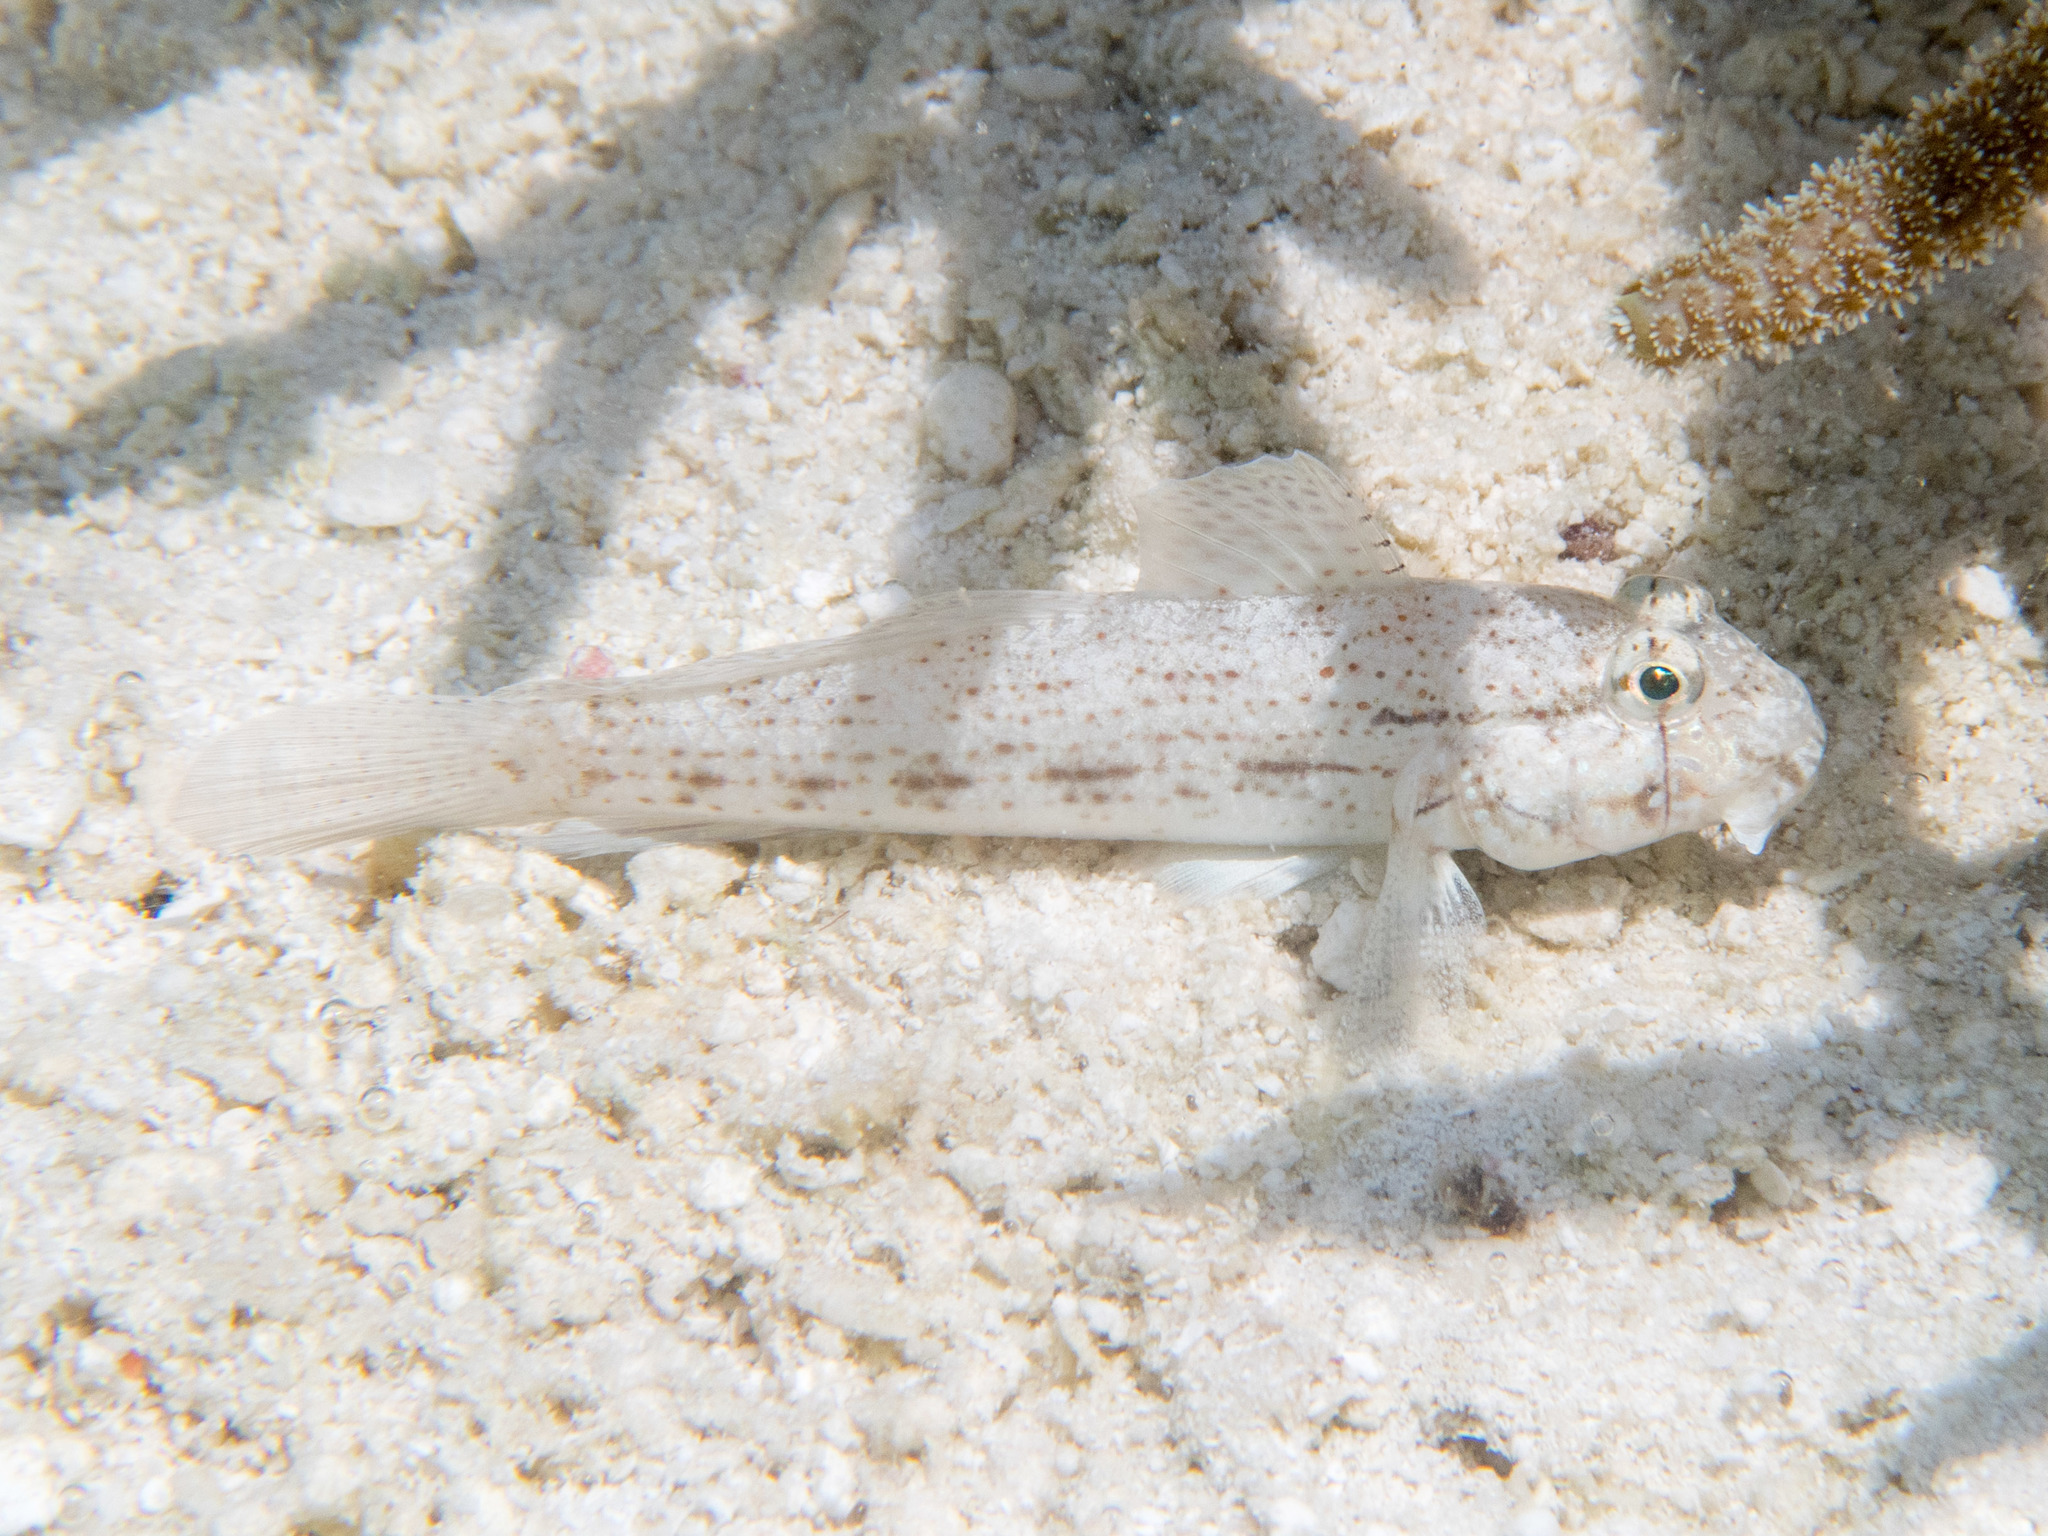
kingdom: Animalia
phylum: Chordata
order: Perciformes
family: Gobiidae
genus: Gnatholepis
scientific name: Gnatholepis anjerensis
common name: Anjer eye-bar goby
